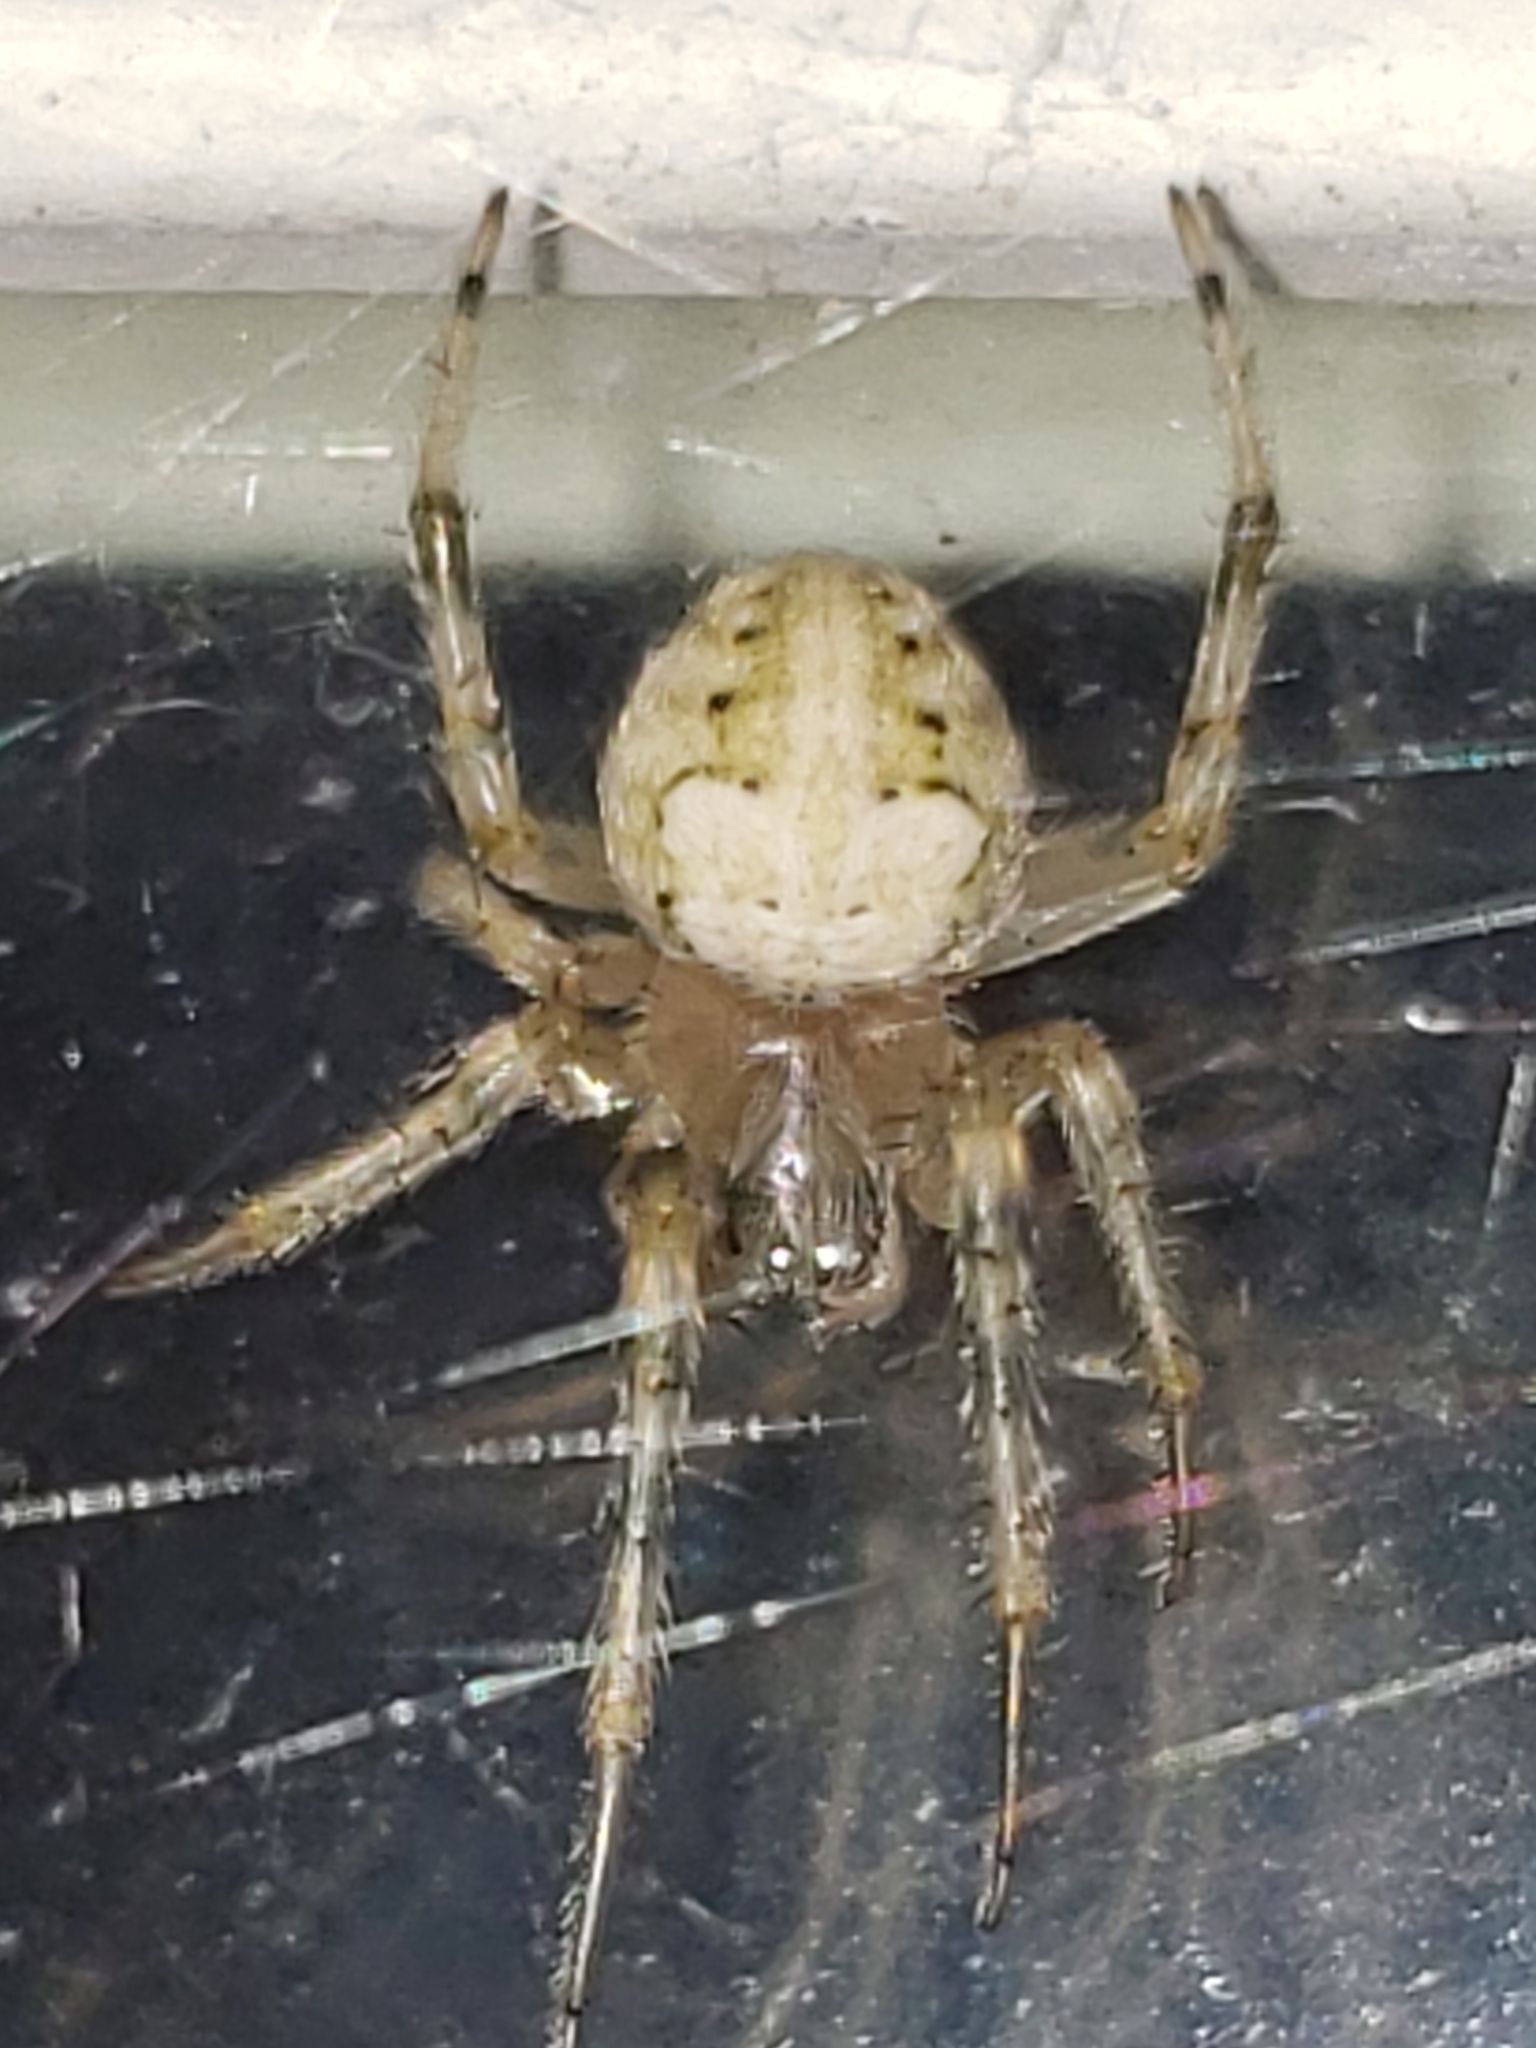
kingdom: Animalia
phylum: Arthropoda
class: Arachnida
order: Araneae
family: Araneidae
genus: Araneus
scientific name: Araneus pegnia
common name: Orb weavers
